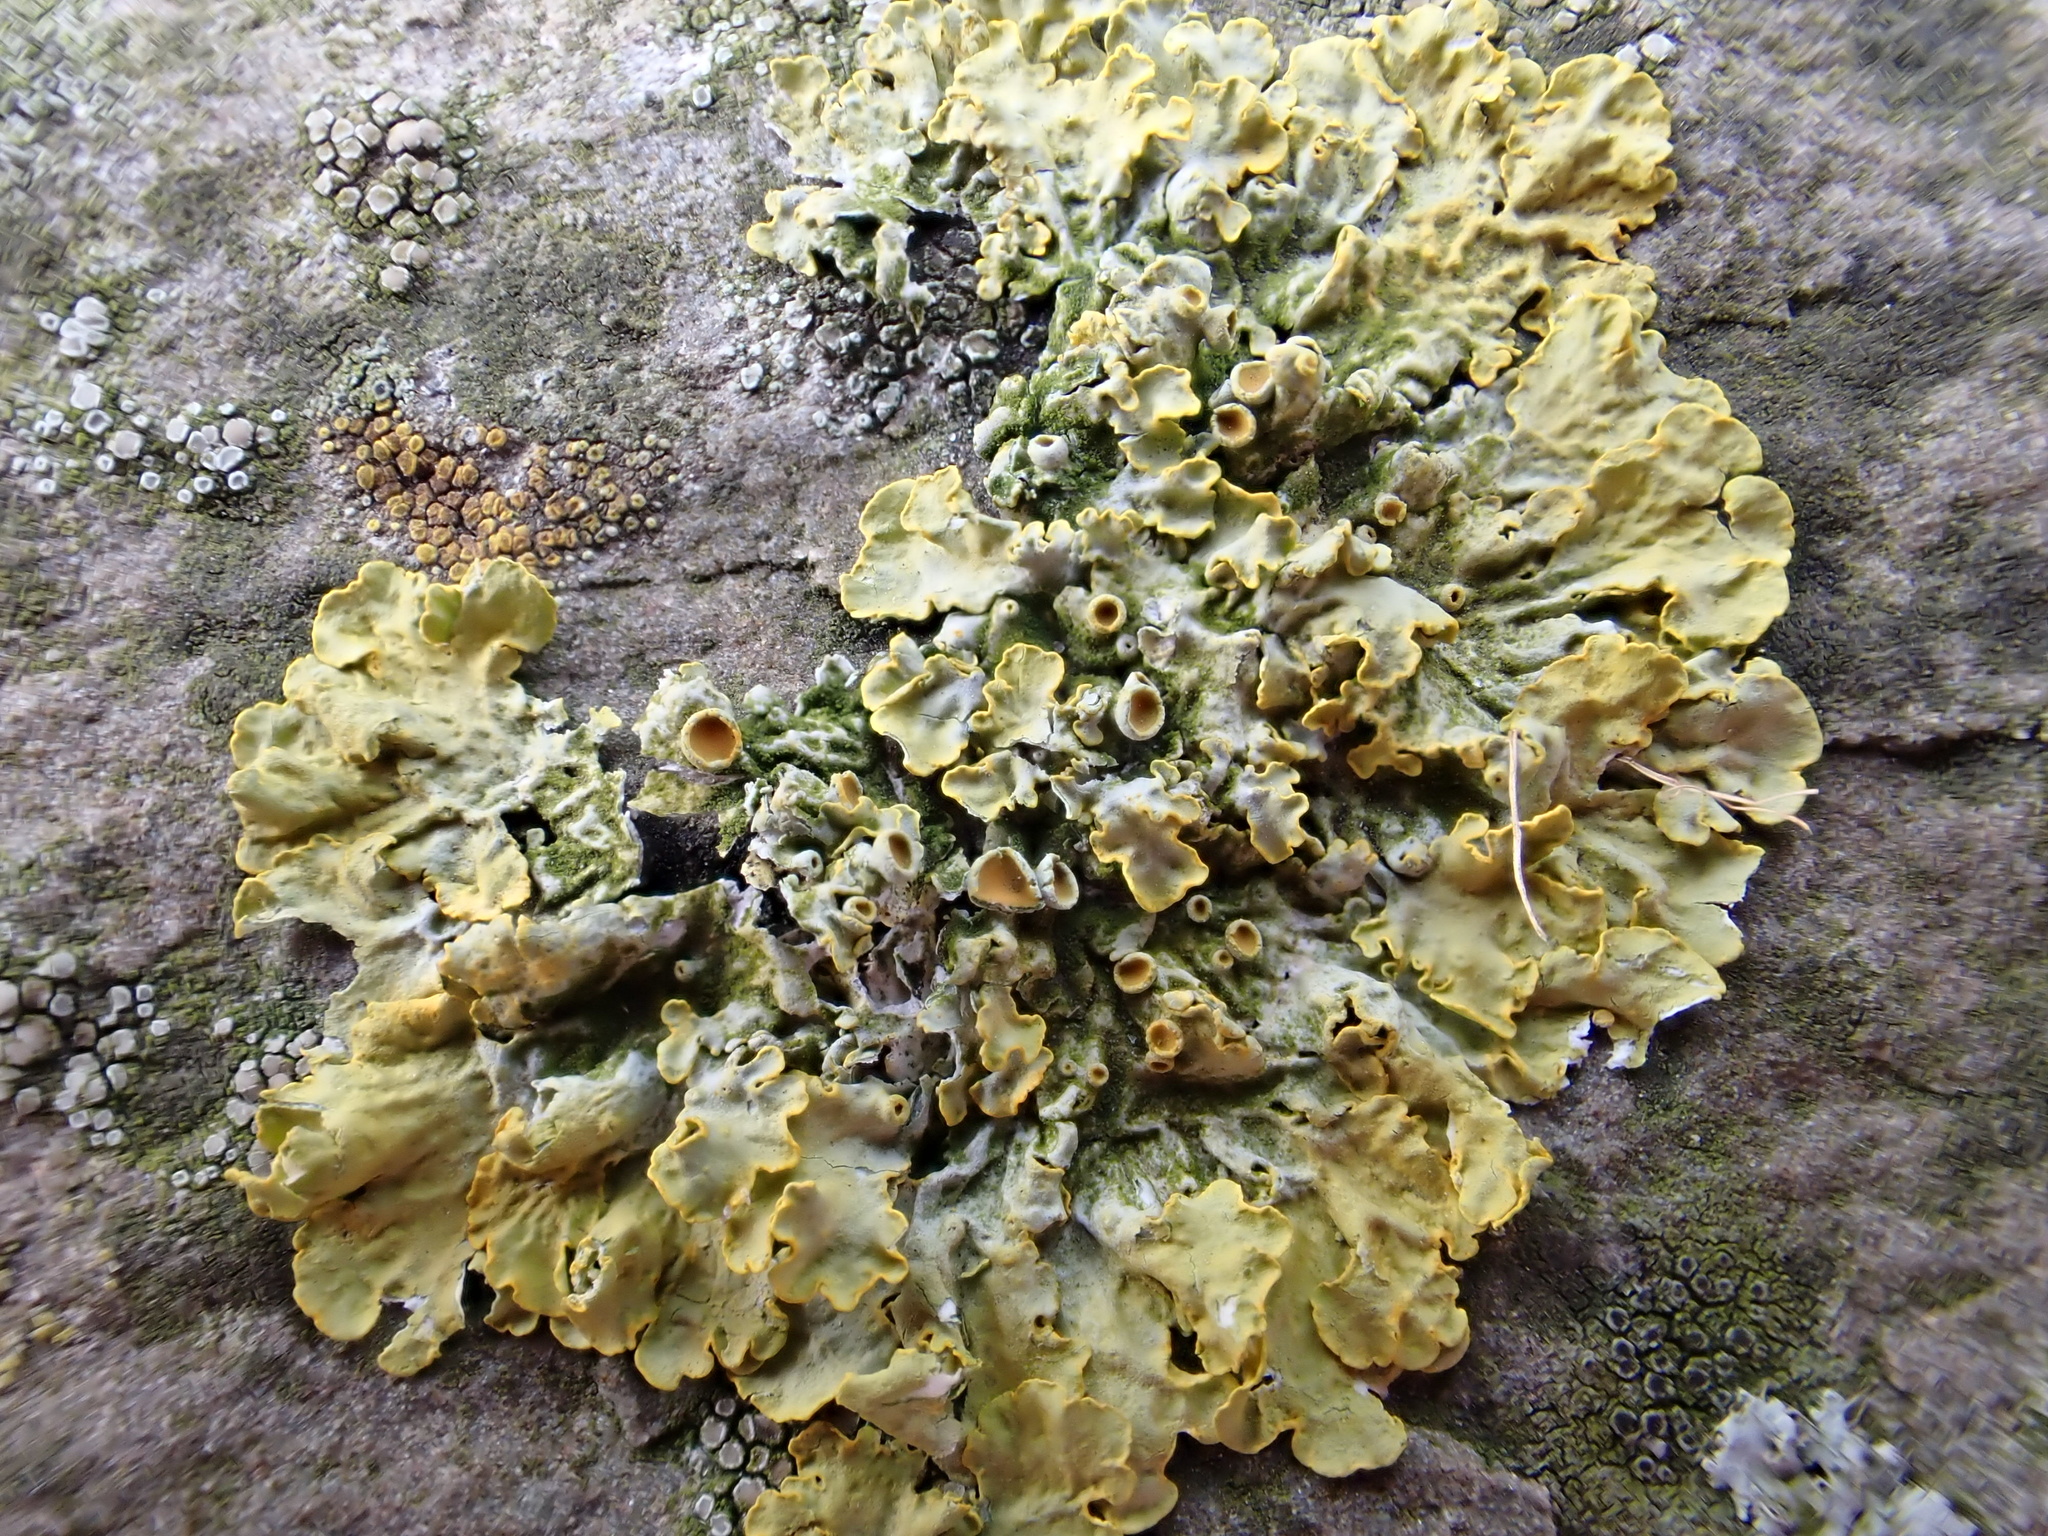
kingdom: Fungi
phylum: Ascomycota
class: Lecanoromycetes
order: Teloschistales
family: Teloschistaceae
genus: Xanthoria
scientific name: Xanthoria parietina
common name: Common orange lichen
